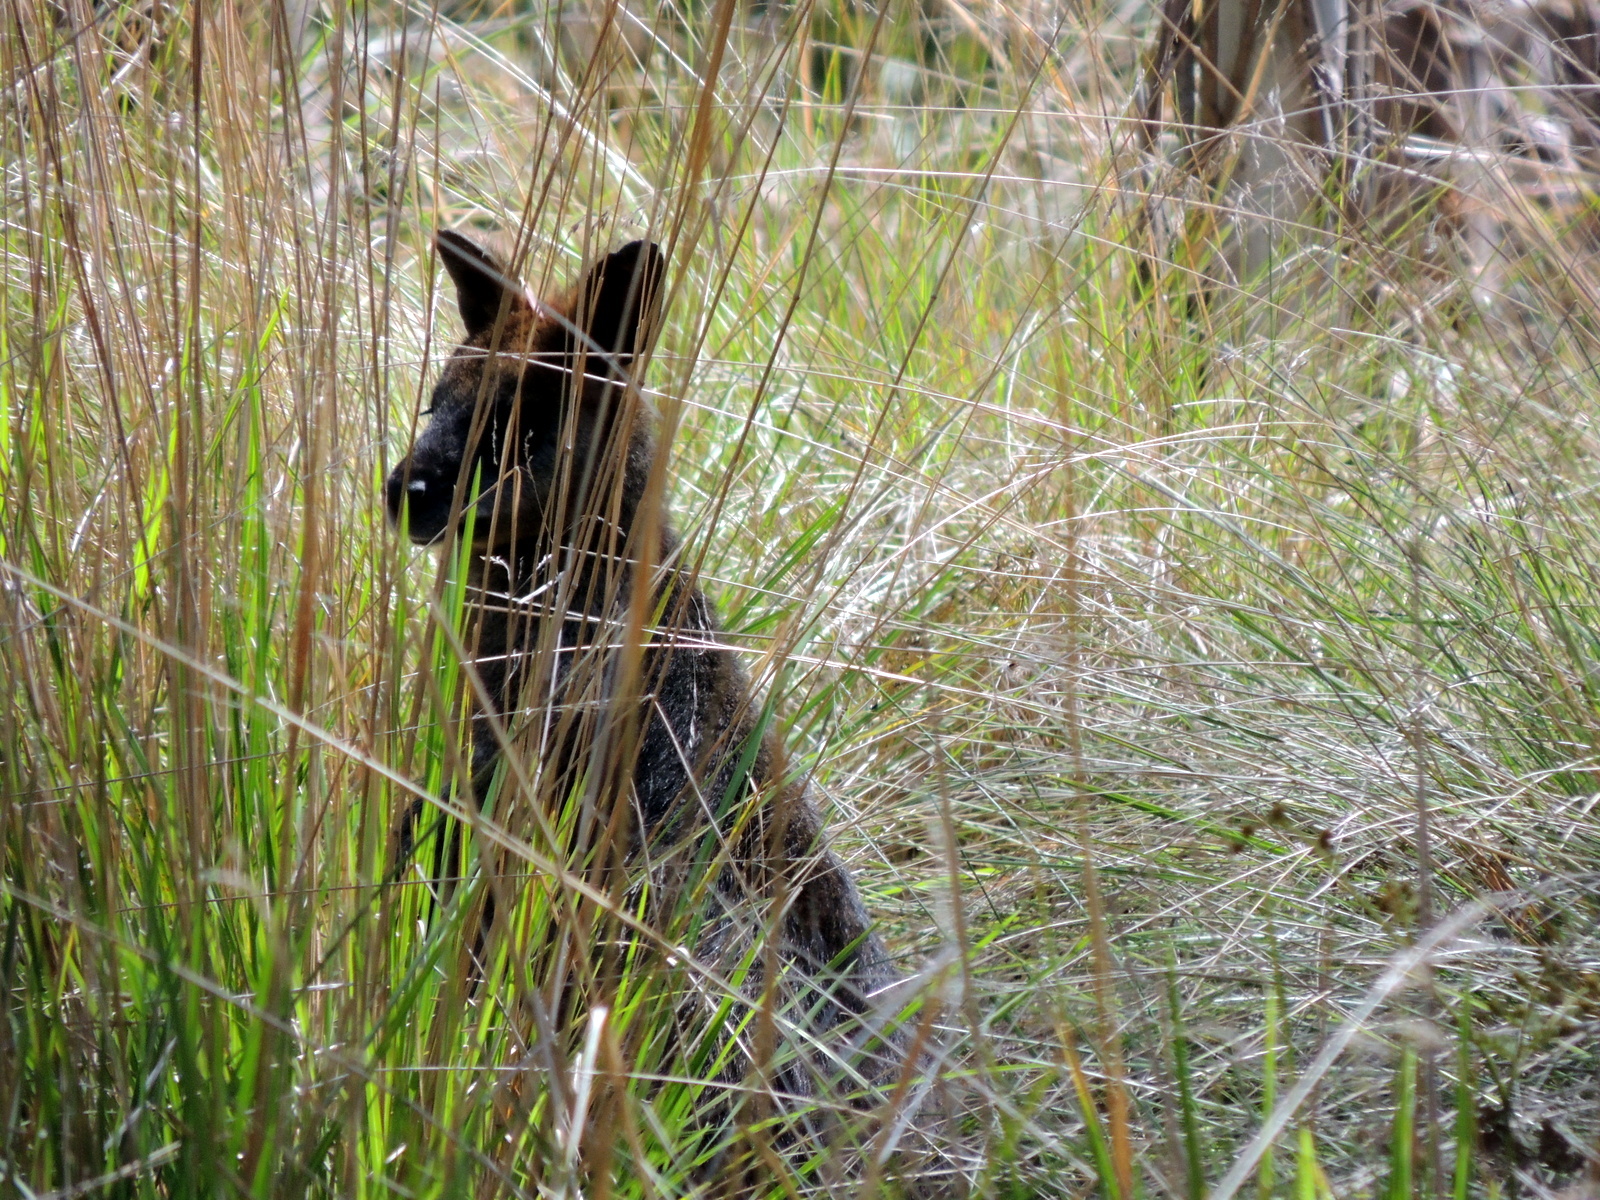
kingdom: Animalia
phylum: Chordata
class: Mammalia
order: Diprotodontia
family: Macropodidae
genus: Wallabia
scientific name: Wallabia bicolor
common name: Swamp wallaby
